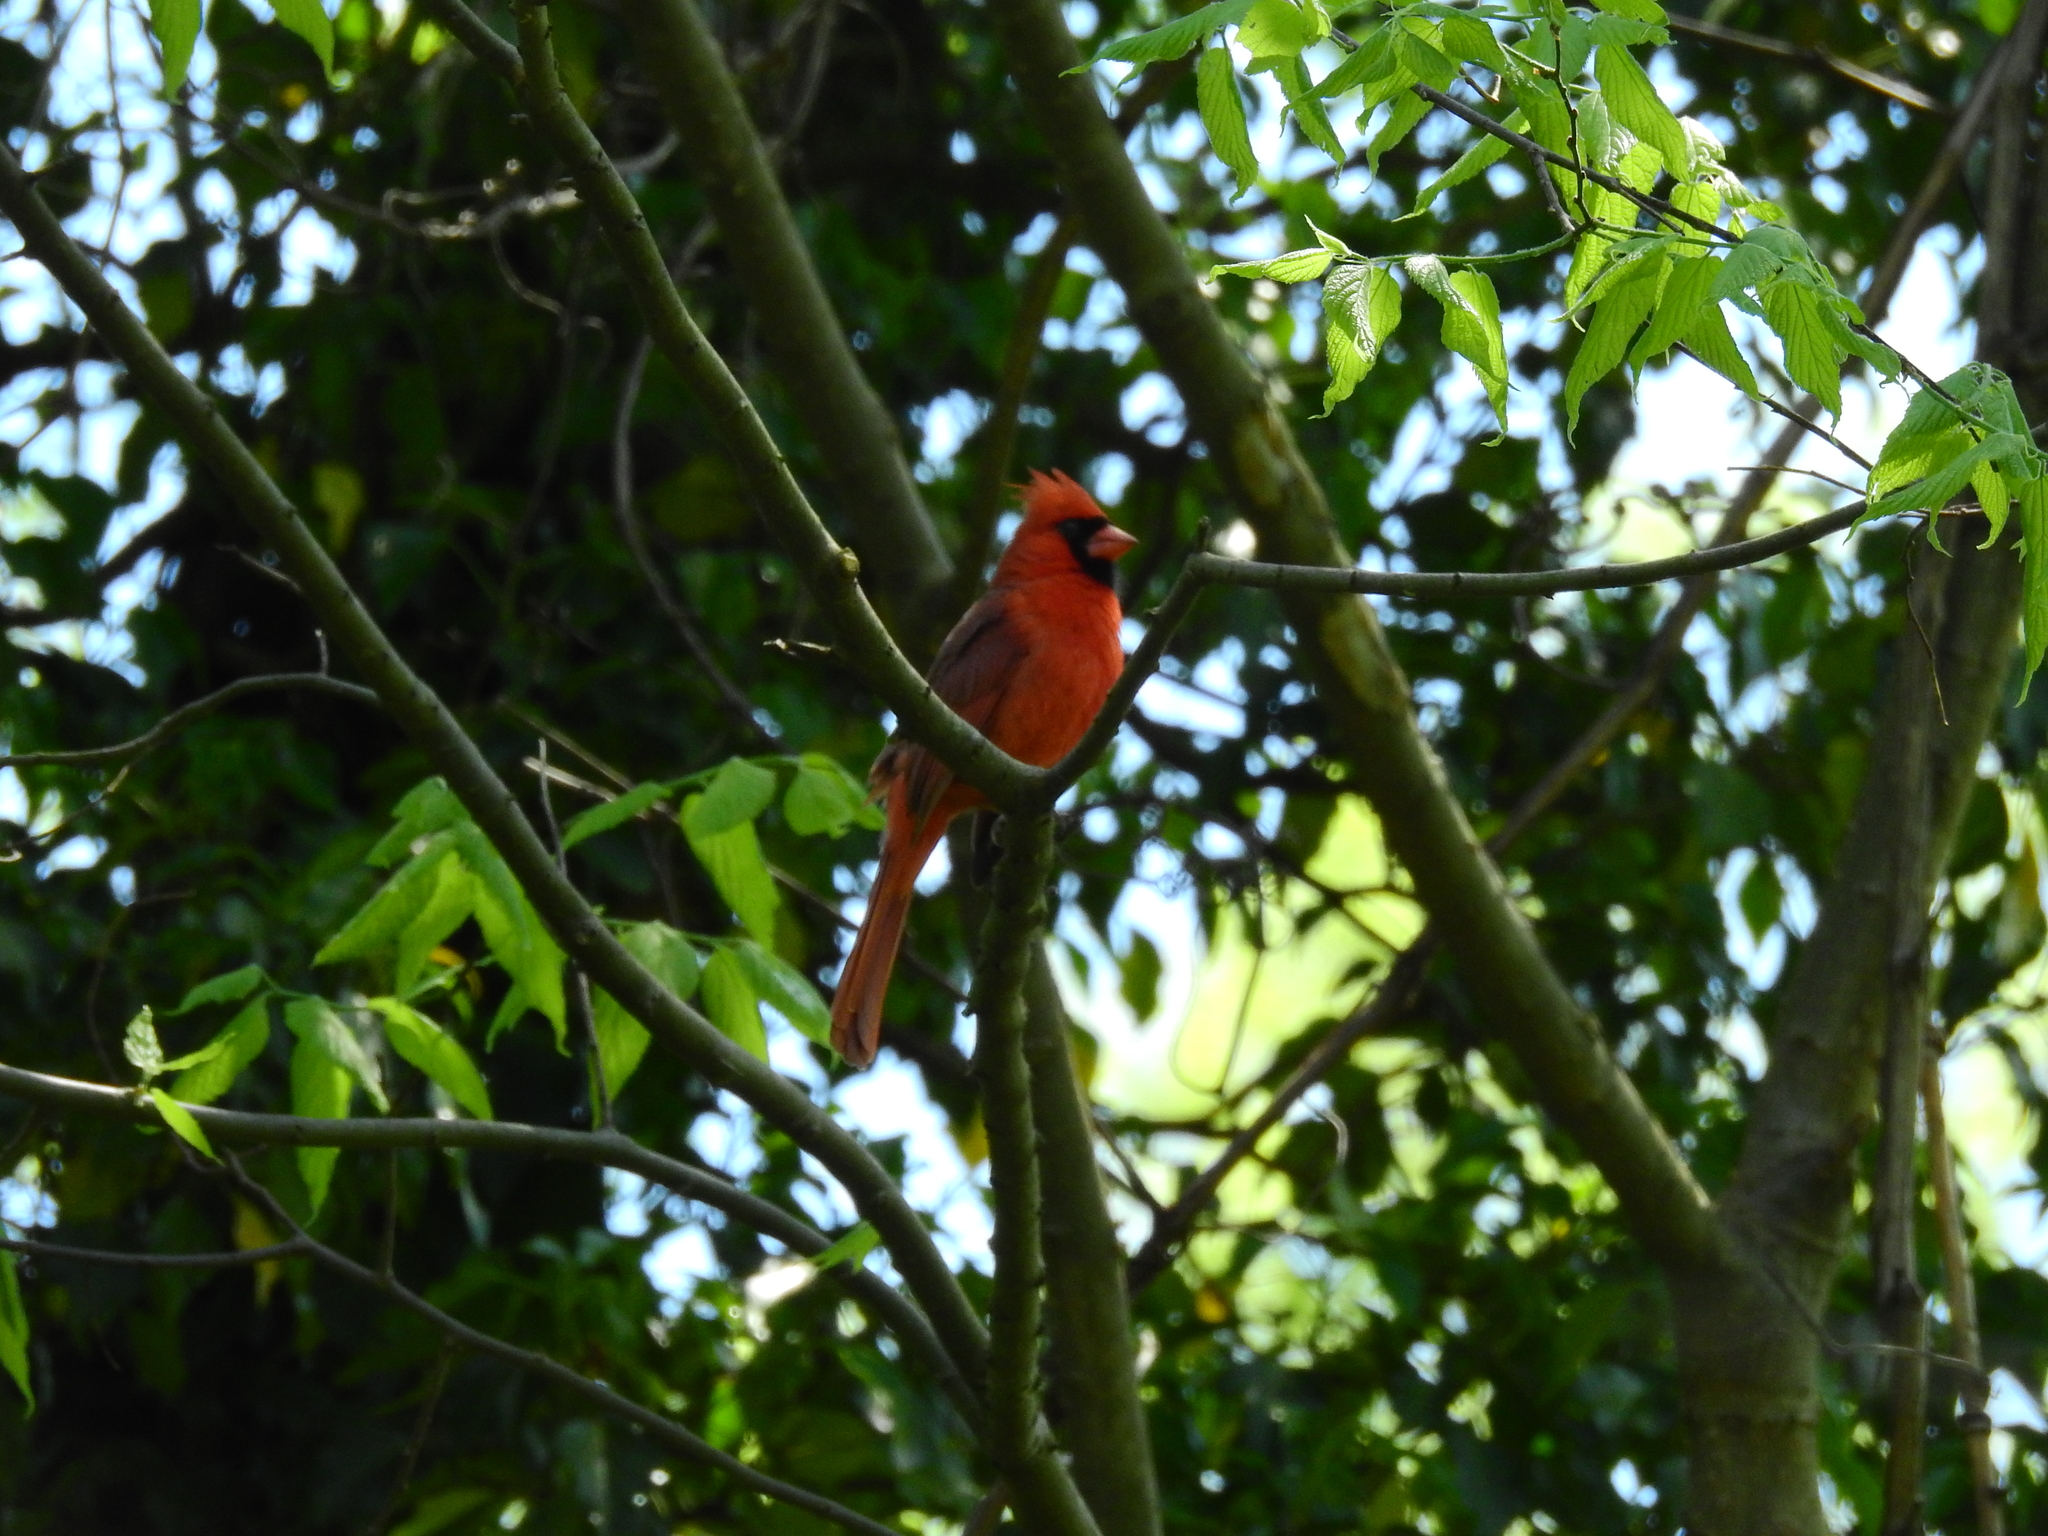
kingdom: Animalia
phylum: Chordata
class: Aves
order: Passeriformes
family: Cardinalidae
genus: Cardinalis
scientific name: Cardinalis cardinalis
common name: Northern cardinal
